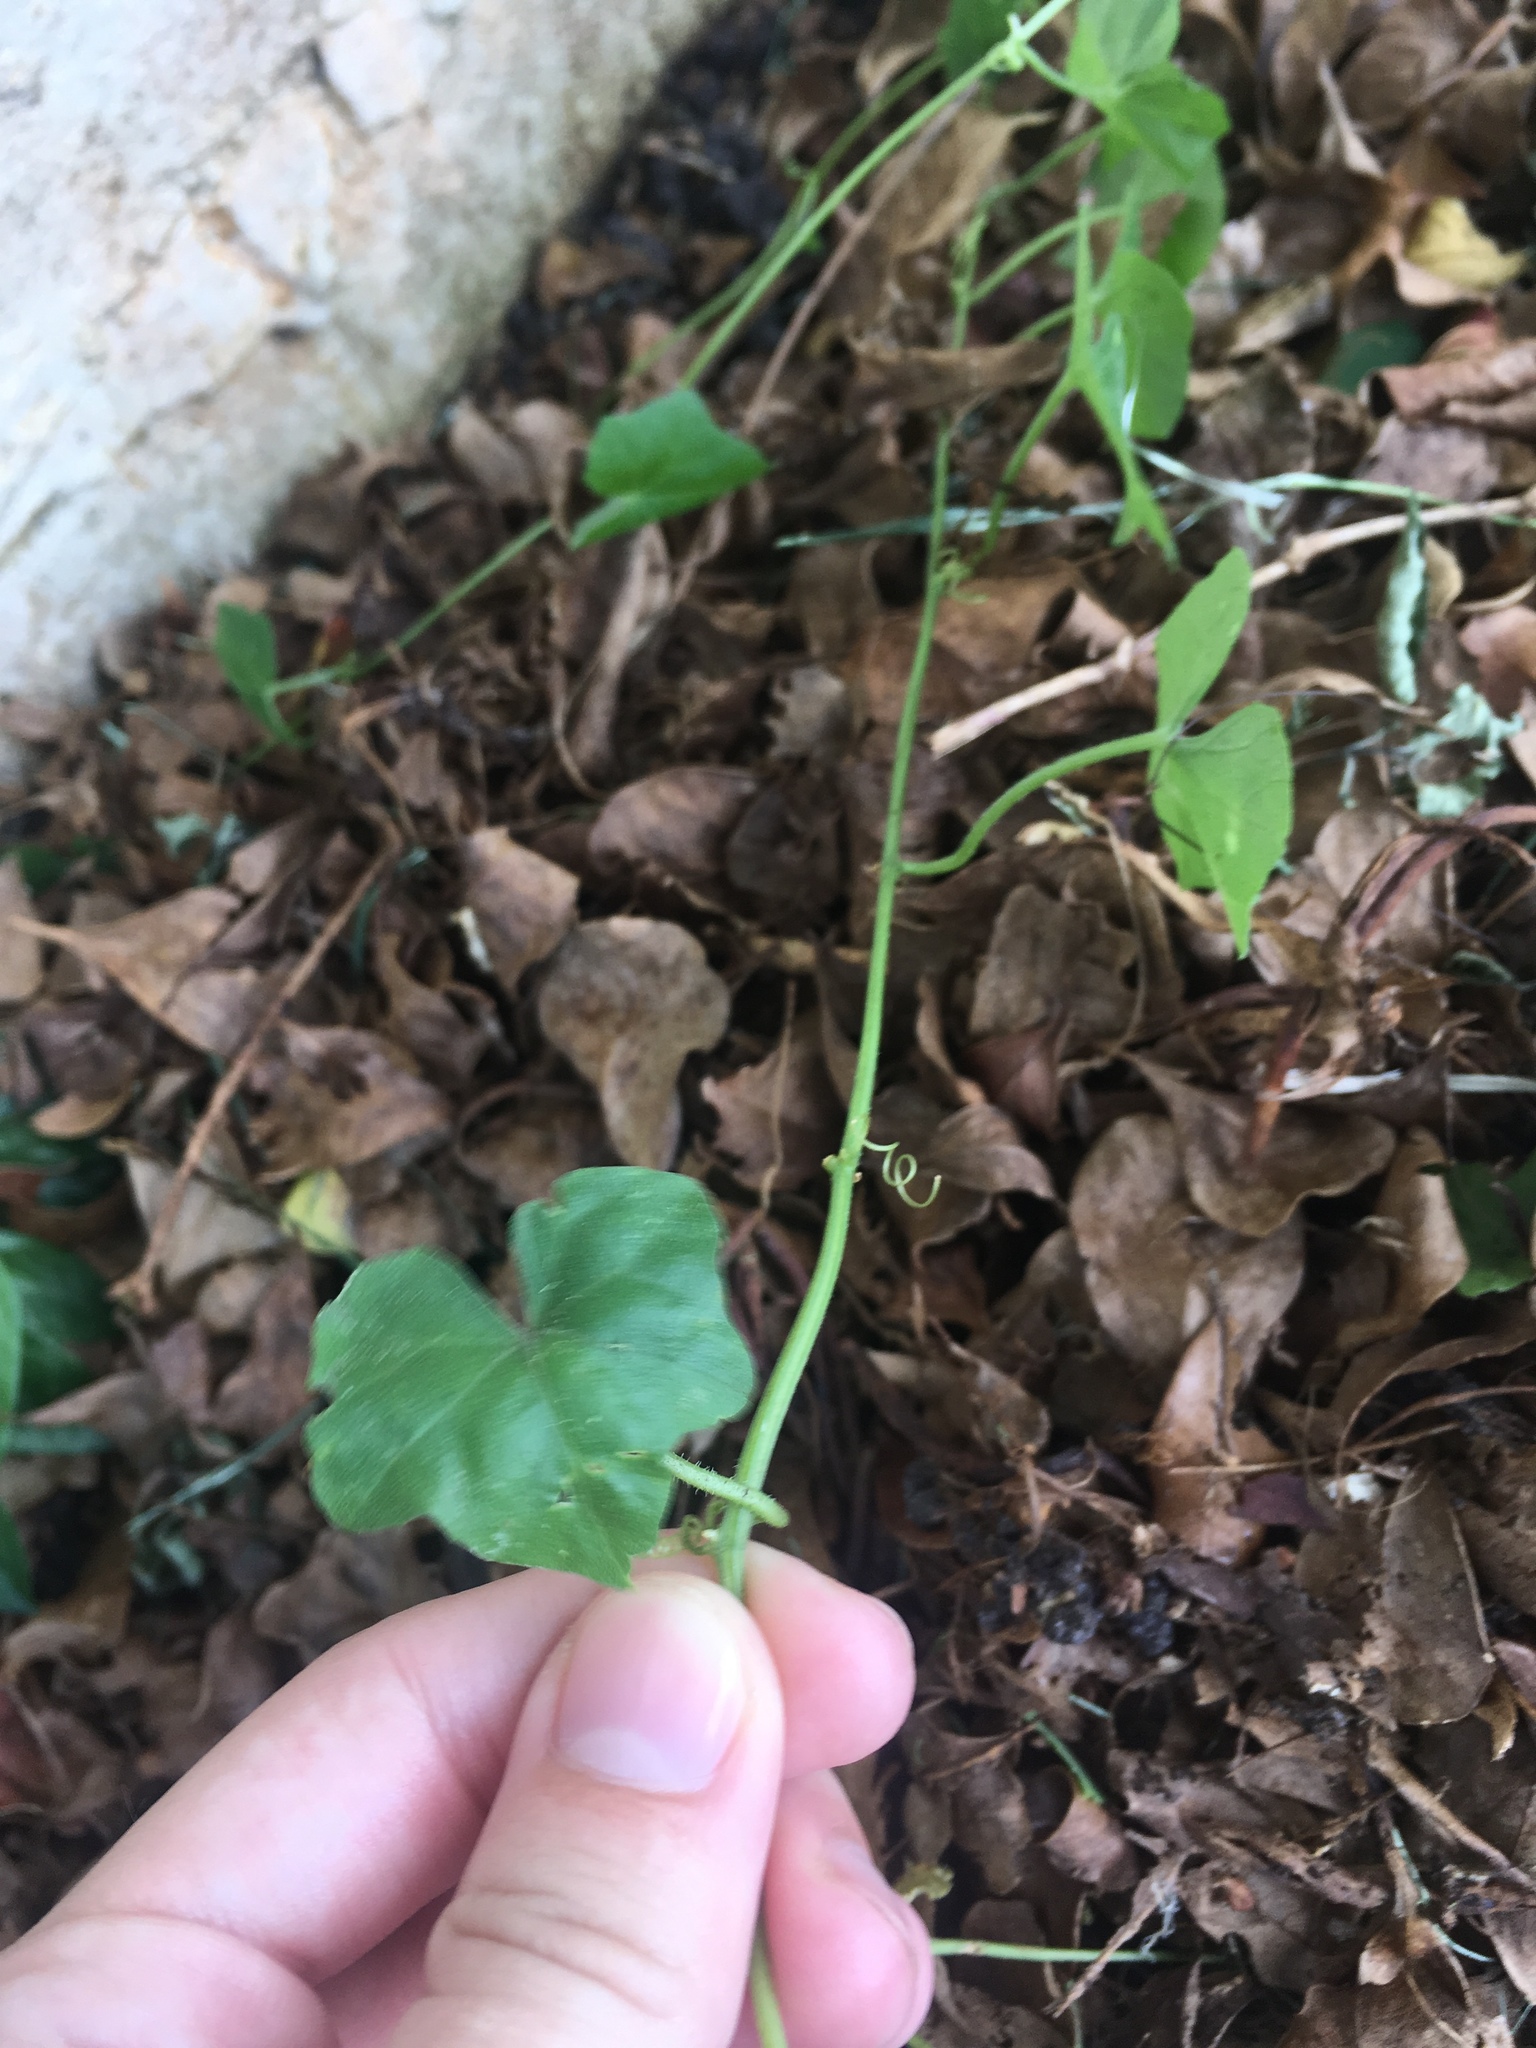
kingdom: Plantae
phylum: Tracheophyta
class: Magnoliopsida
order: Cucurbitales
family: Cucurbitaceae
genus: Melothria
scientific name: Melothria pendula
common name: Creeping-cucumber
